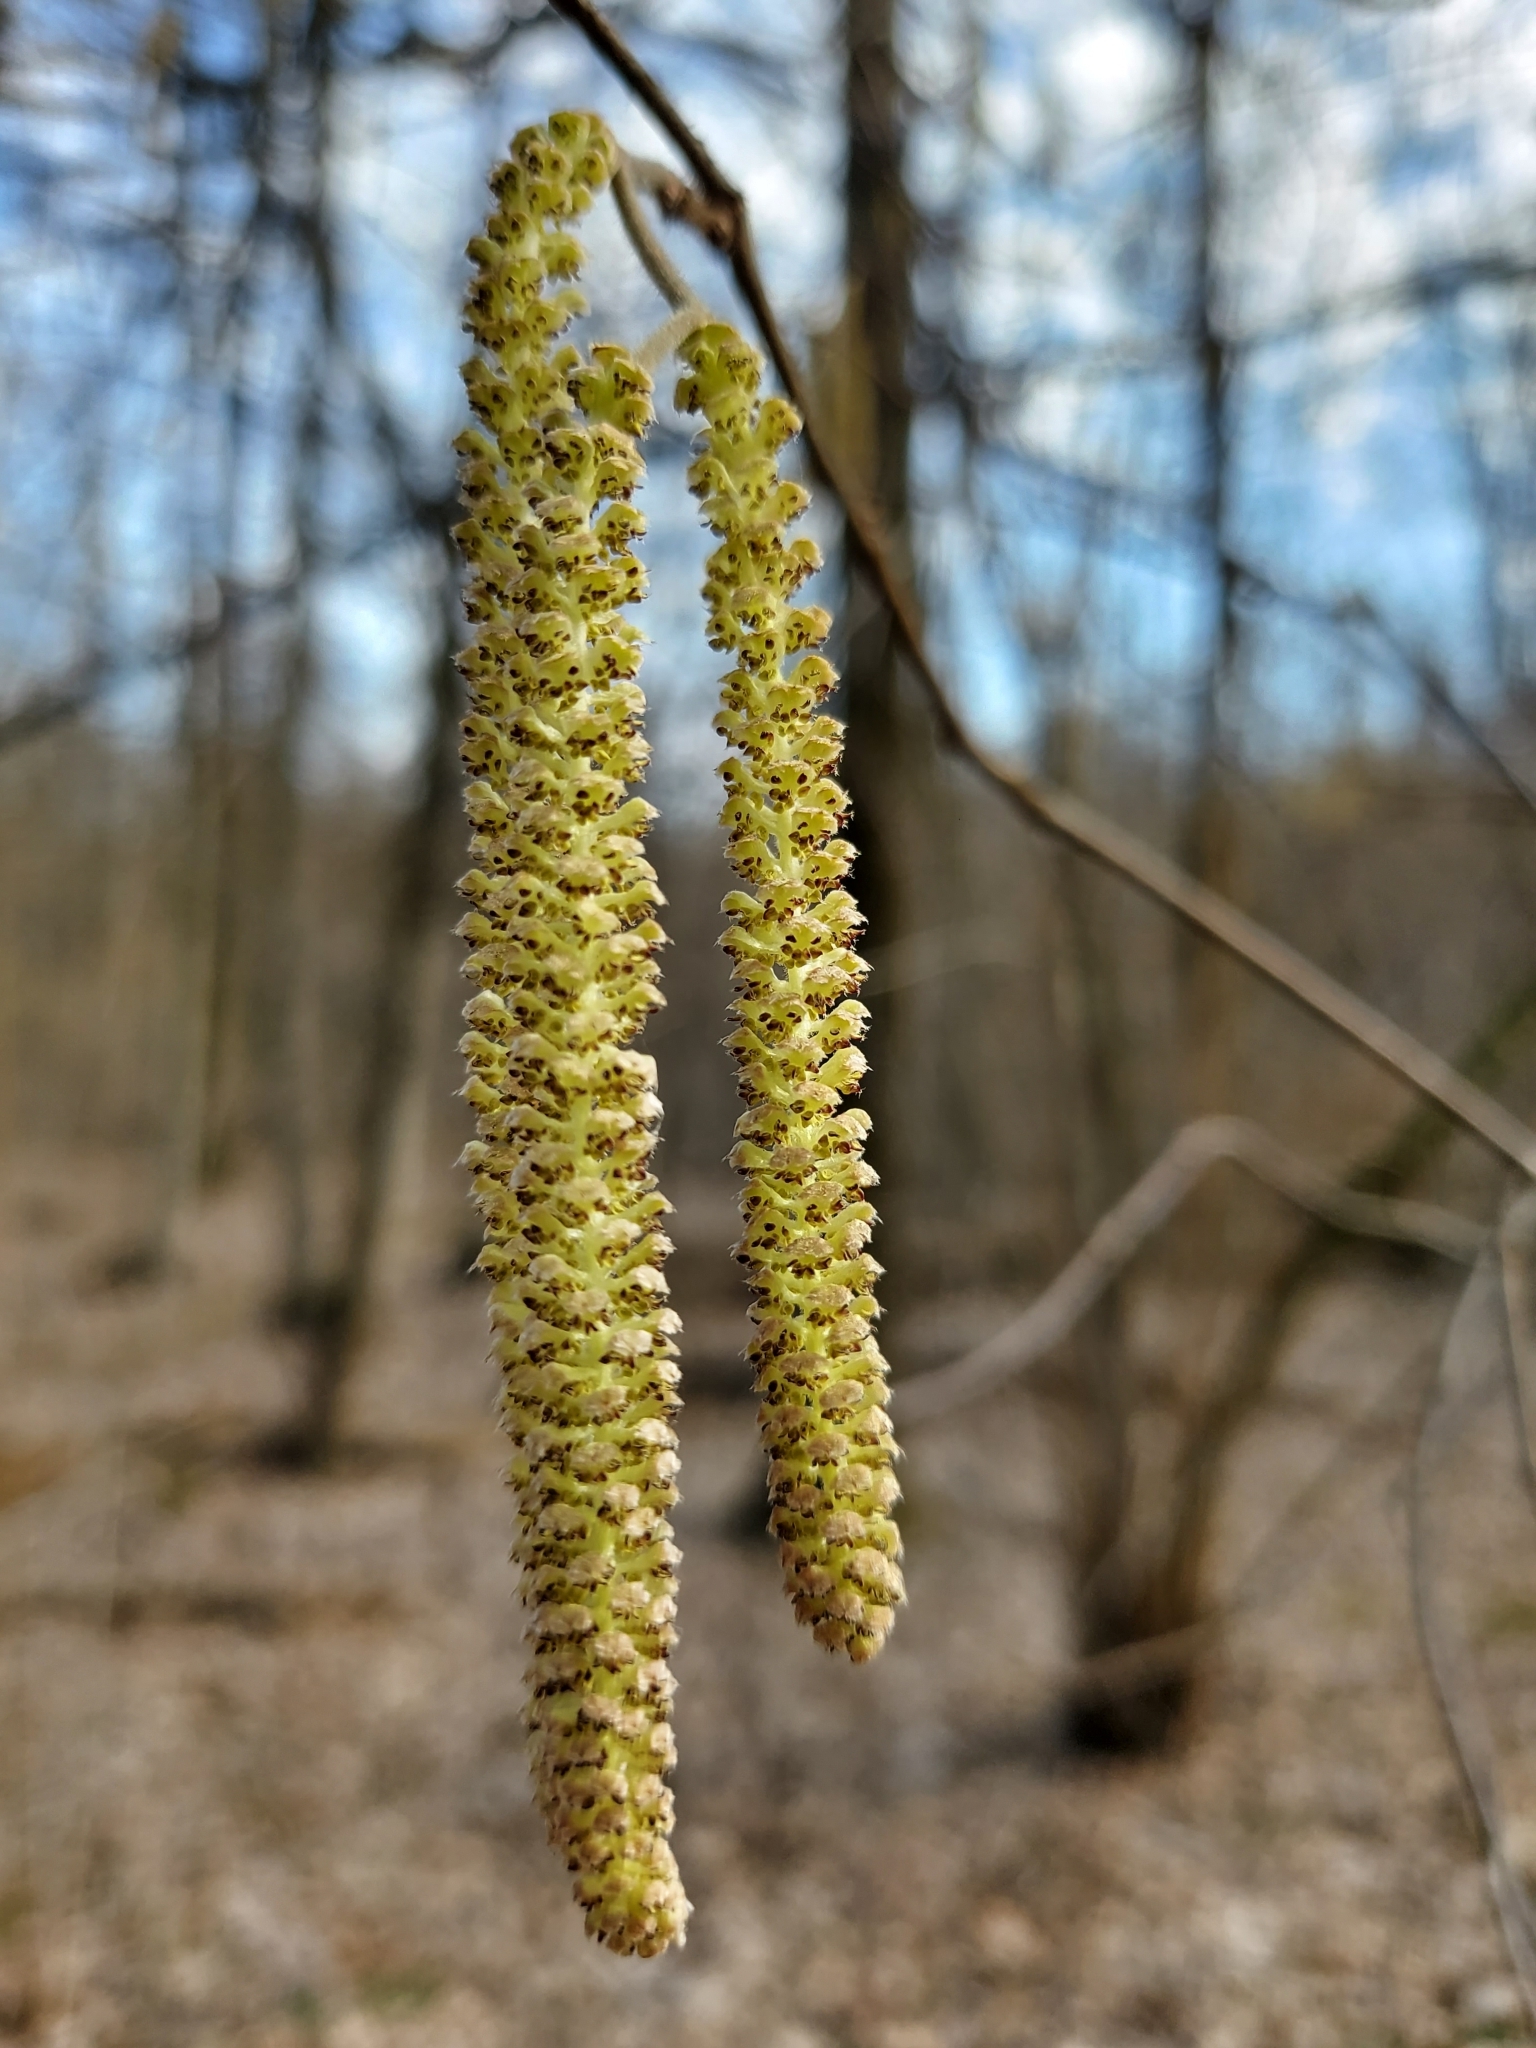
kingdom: Plantae
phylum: Tracheophyta
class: Magnoliopsida
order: Fagales
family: Betulaceae
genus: Corylus
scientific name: Corylus avellana
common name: European hazel
